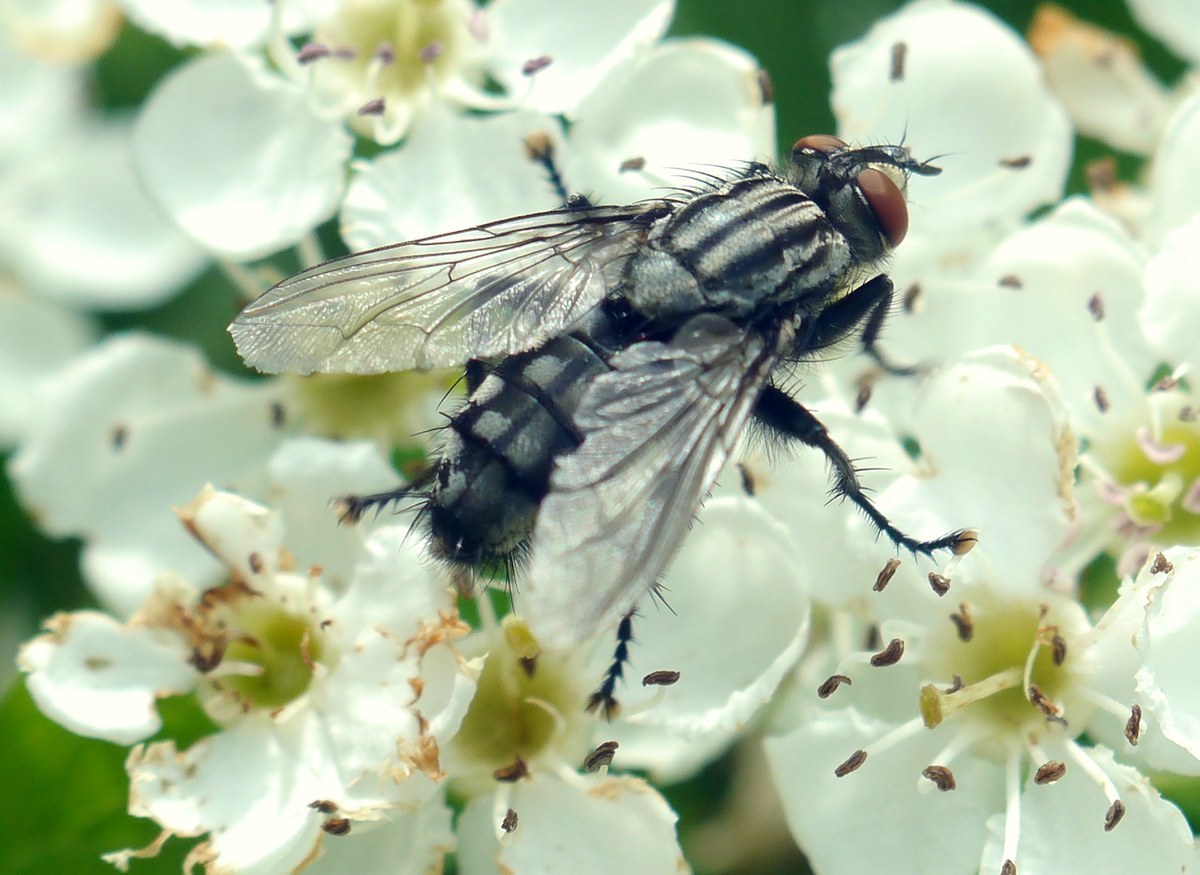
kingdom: Animalia
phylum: Arthropoda
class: Insecta
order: Diptera
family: Sarcophagidae
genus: Sarcophaga
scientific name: Sarcophaga
